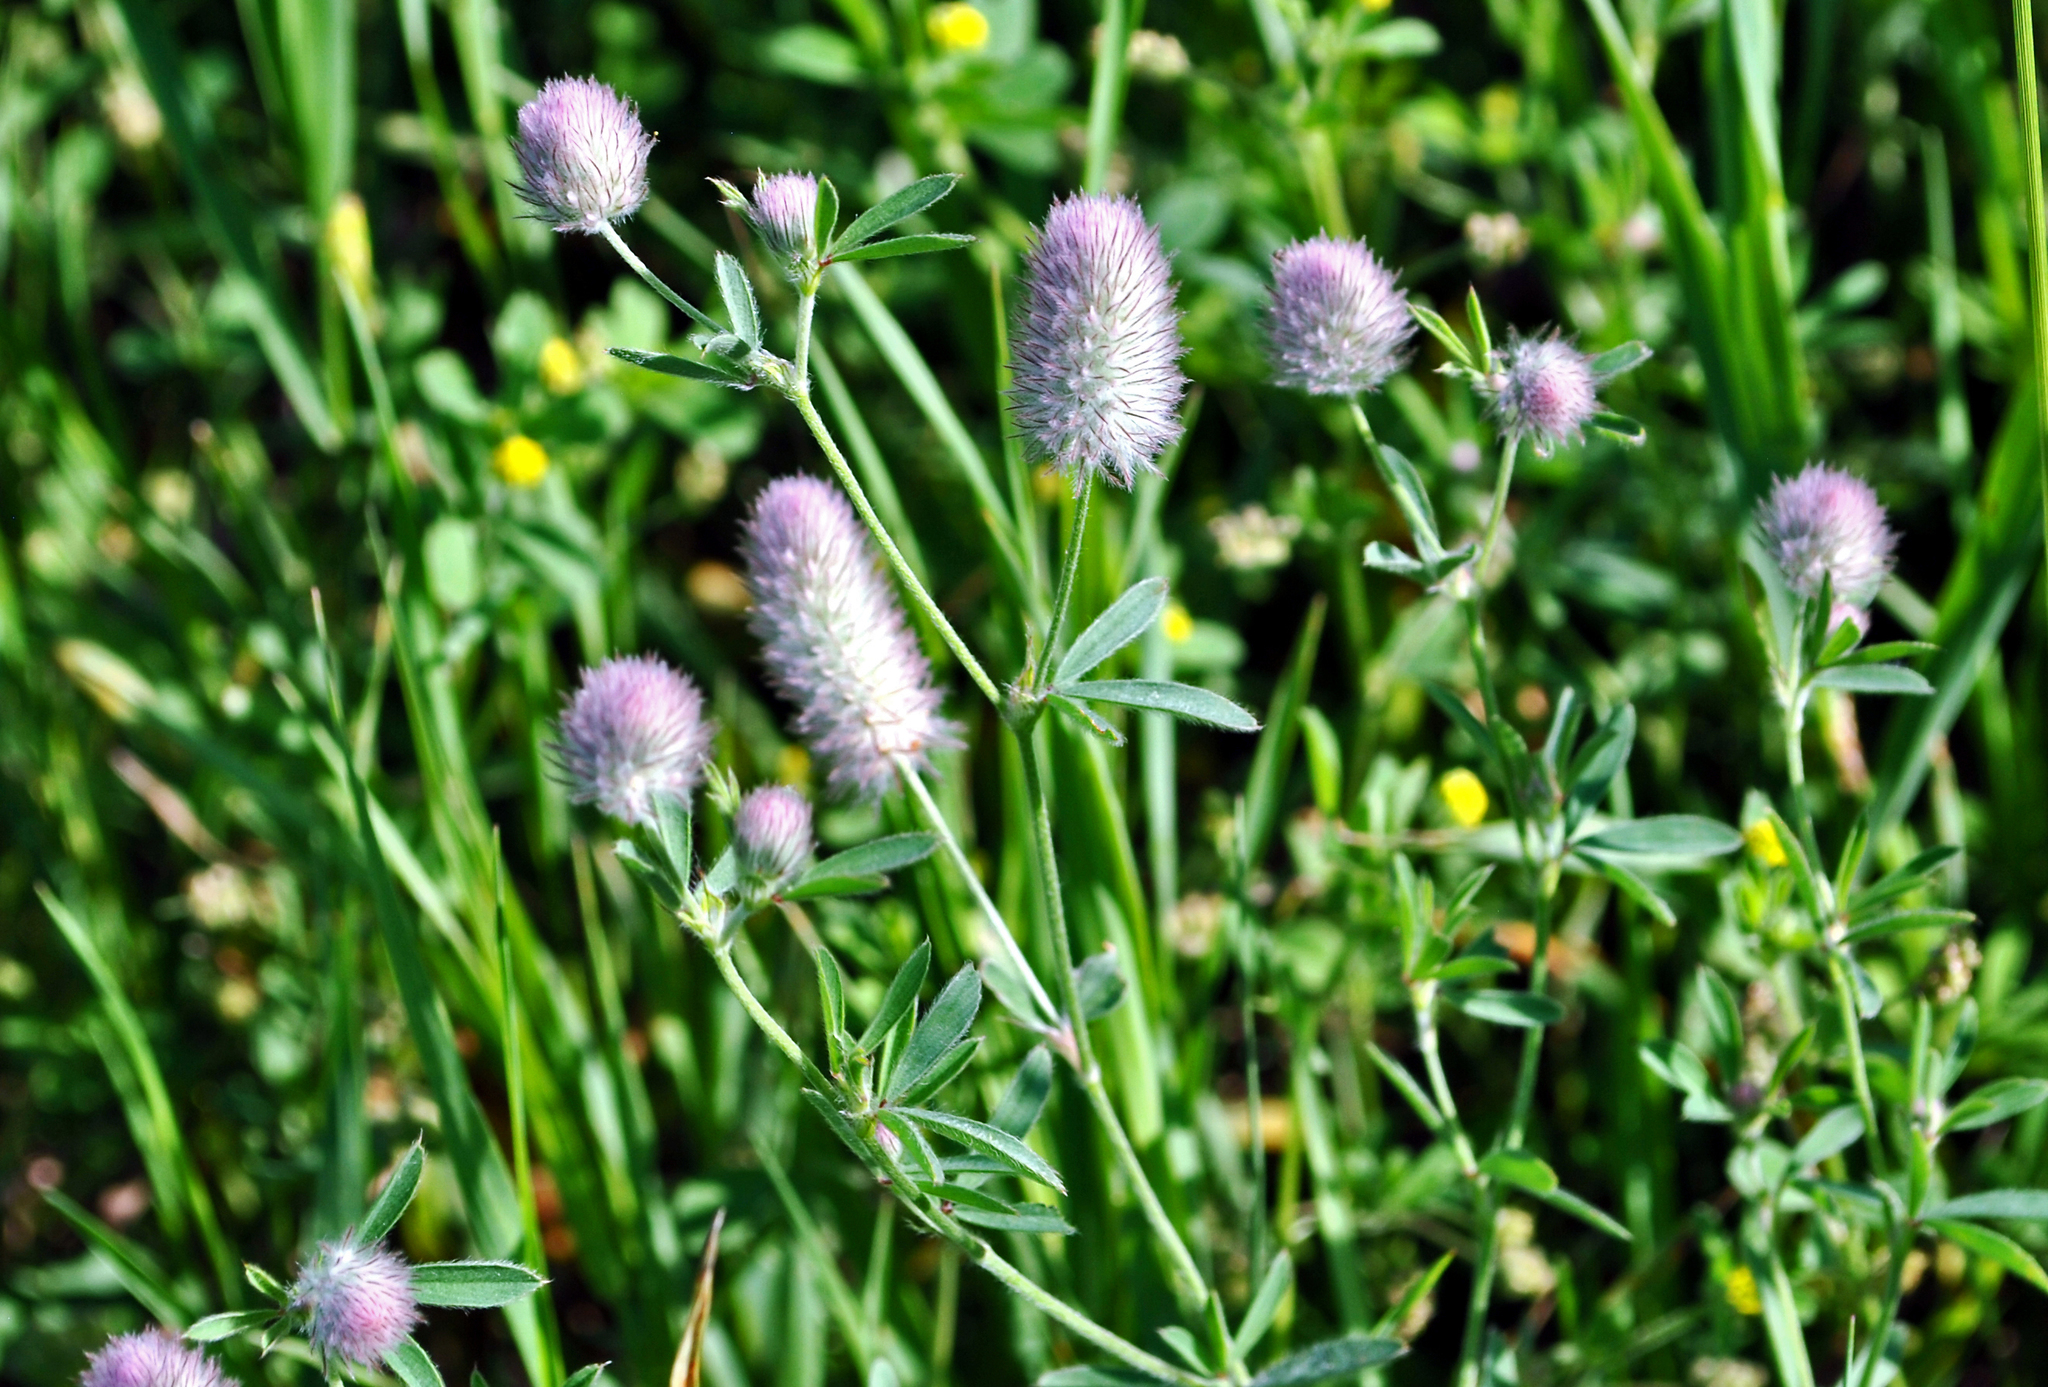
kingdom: Plantae
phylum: Tracheophyta
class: Magnoliopsida
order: Fabales
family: Fabaceae
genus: Trifolium
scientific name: Trifolium arvense
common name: Hare's-foot clover
